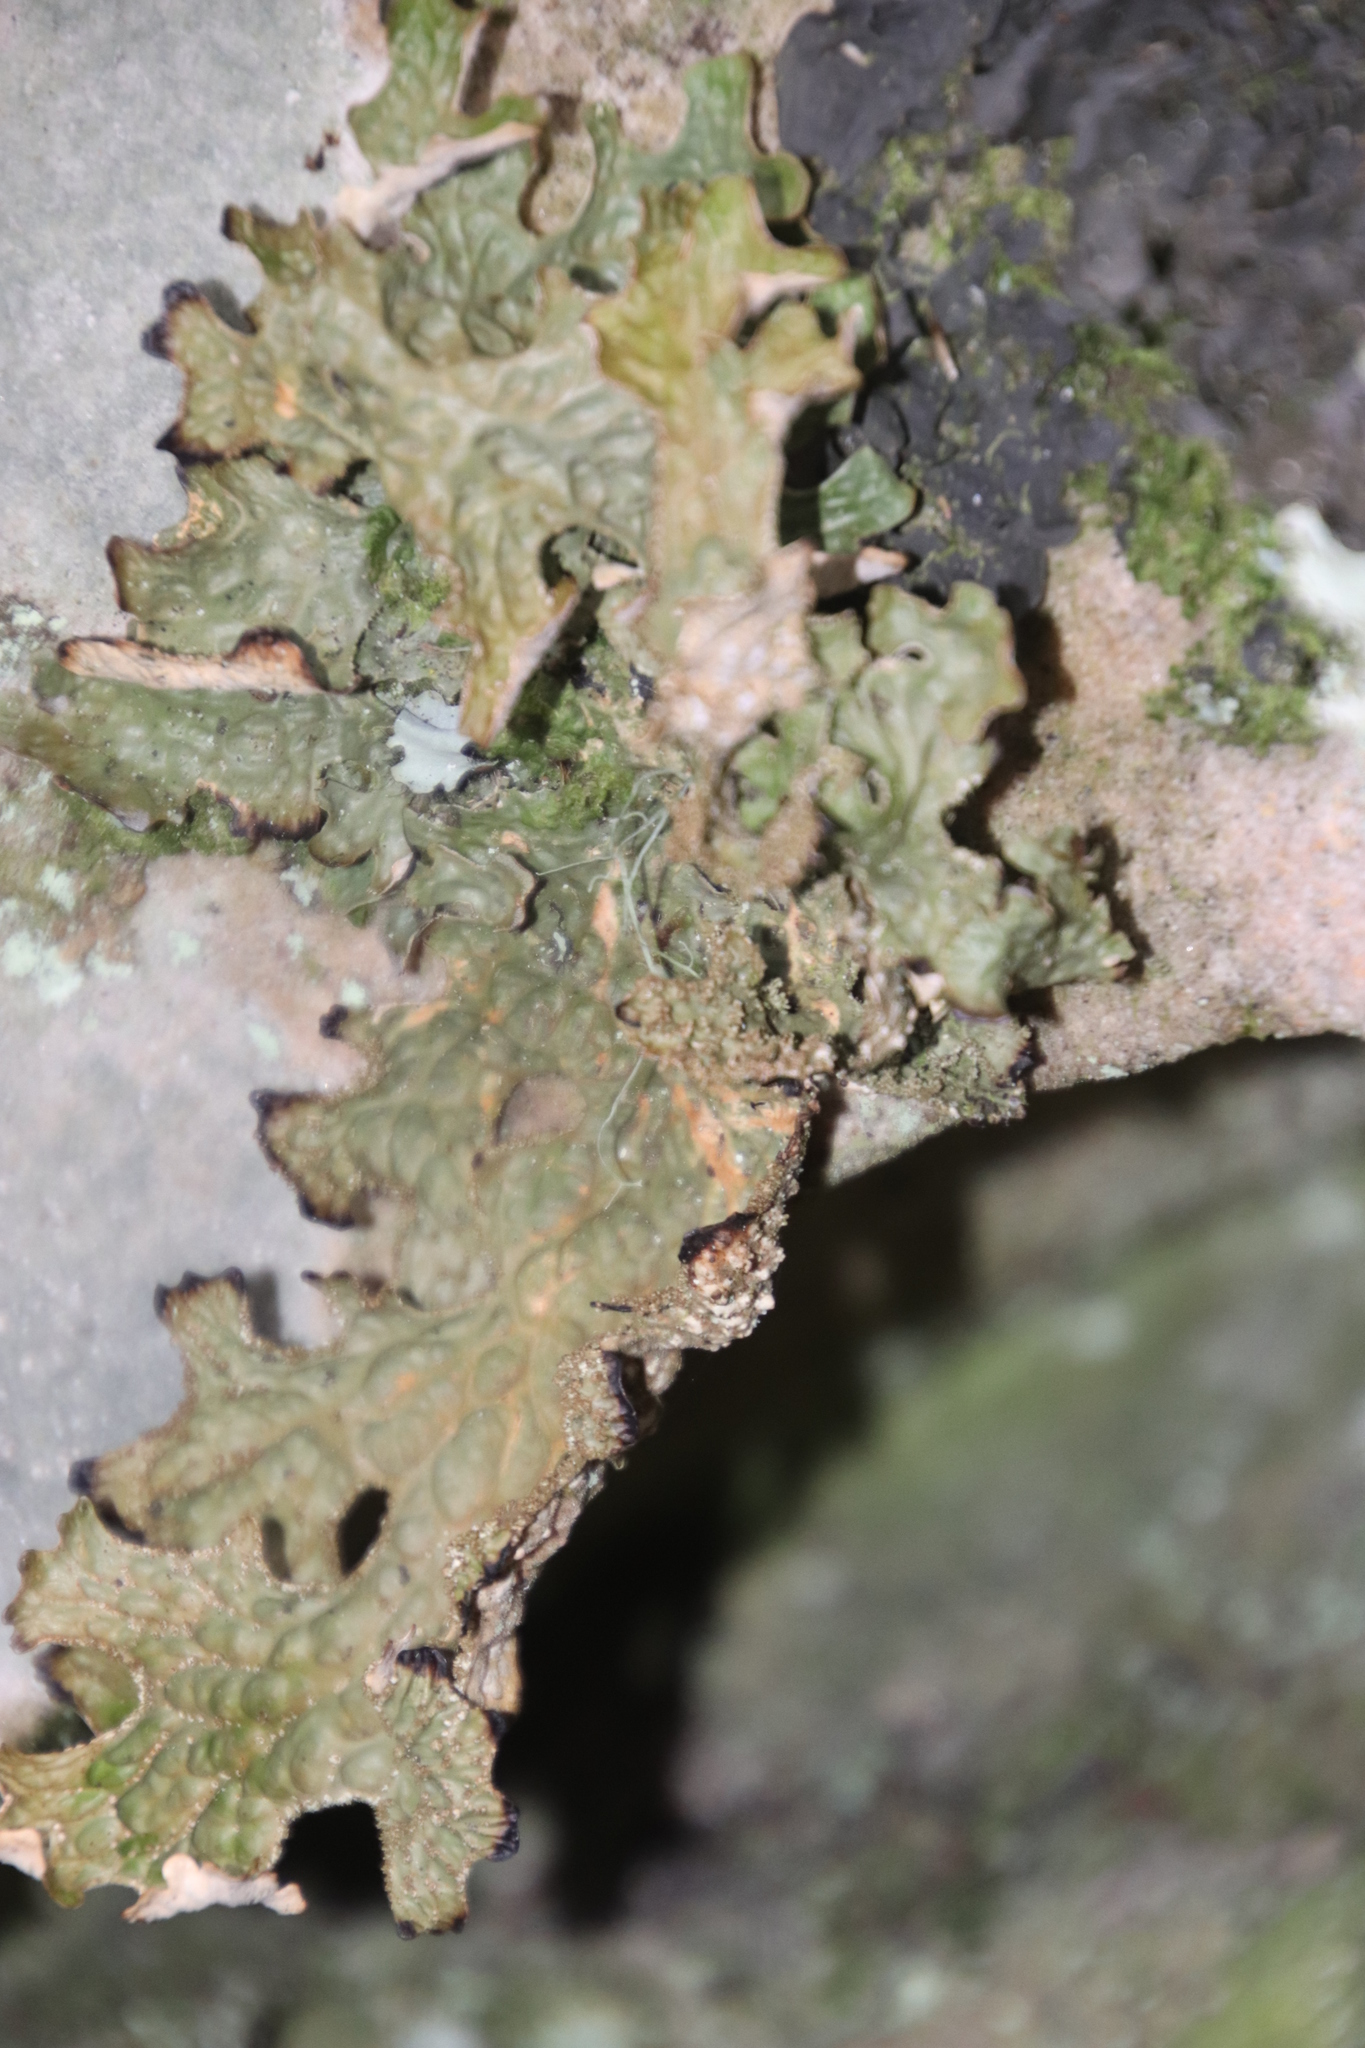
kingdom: Fungi
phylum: Ascomycota
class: Lecanoromycetes
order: Peltigerales
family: Lobariaceae
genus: Lobaria
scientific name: Lobaria pulmonaria
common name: Lungwort
